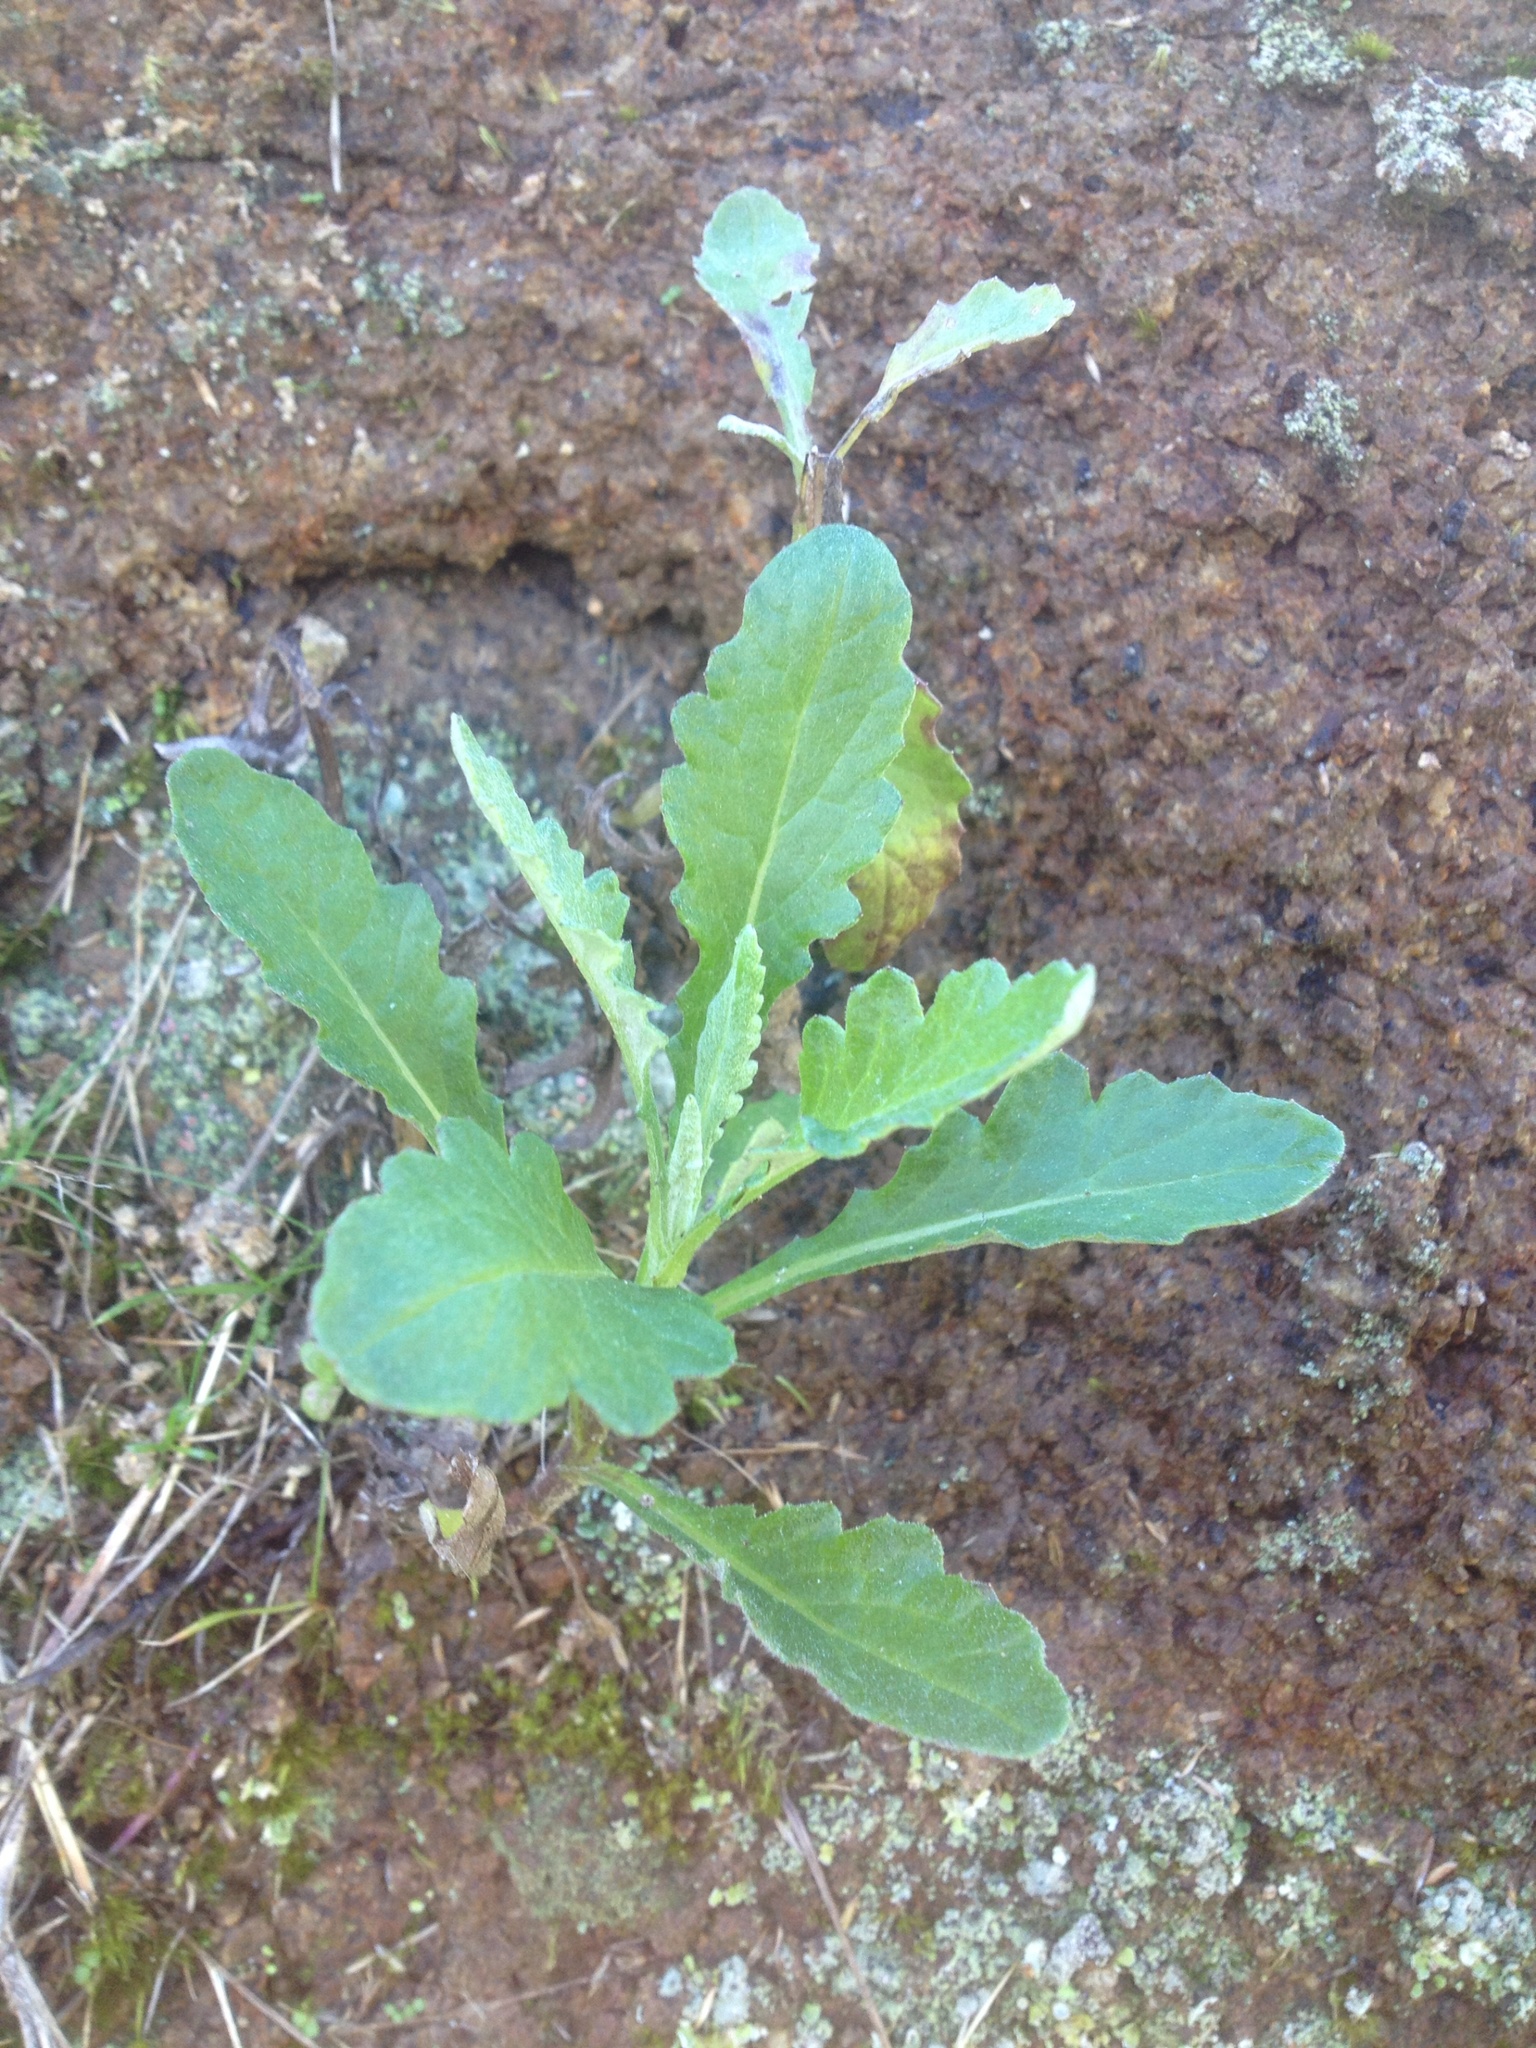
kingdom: Plantae
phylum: Tracheophyta
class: Magnoliopsida
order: Asterales
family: Asteraceae
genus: Senecio
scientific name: Senecio glomeratus
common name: Cutleaf burnweed
